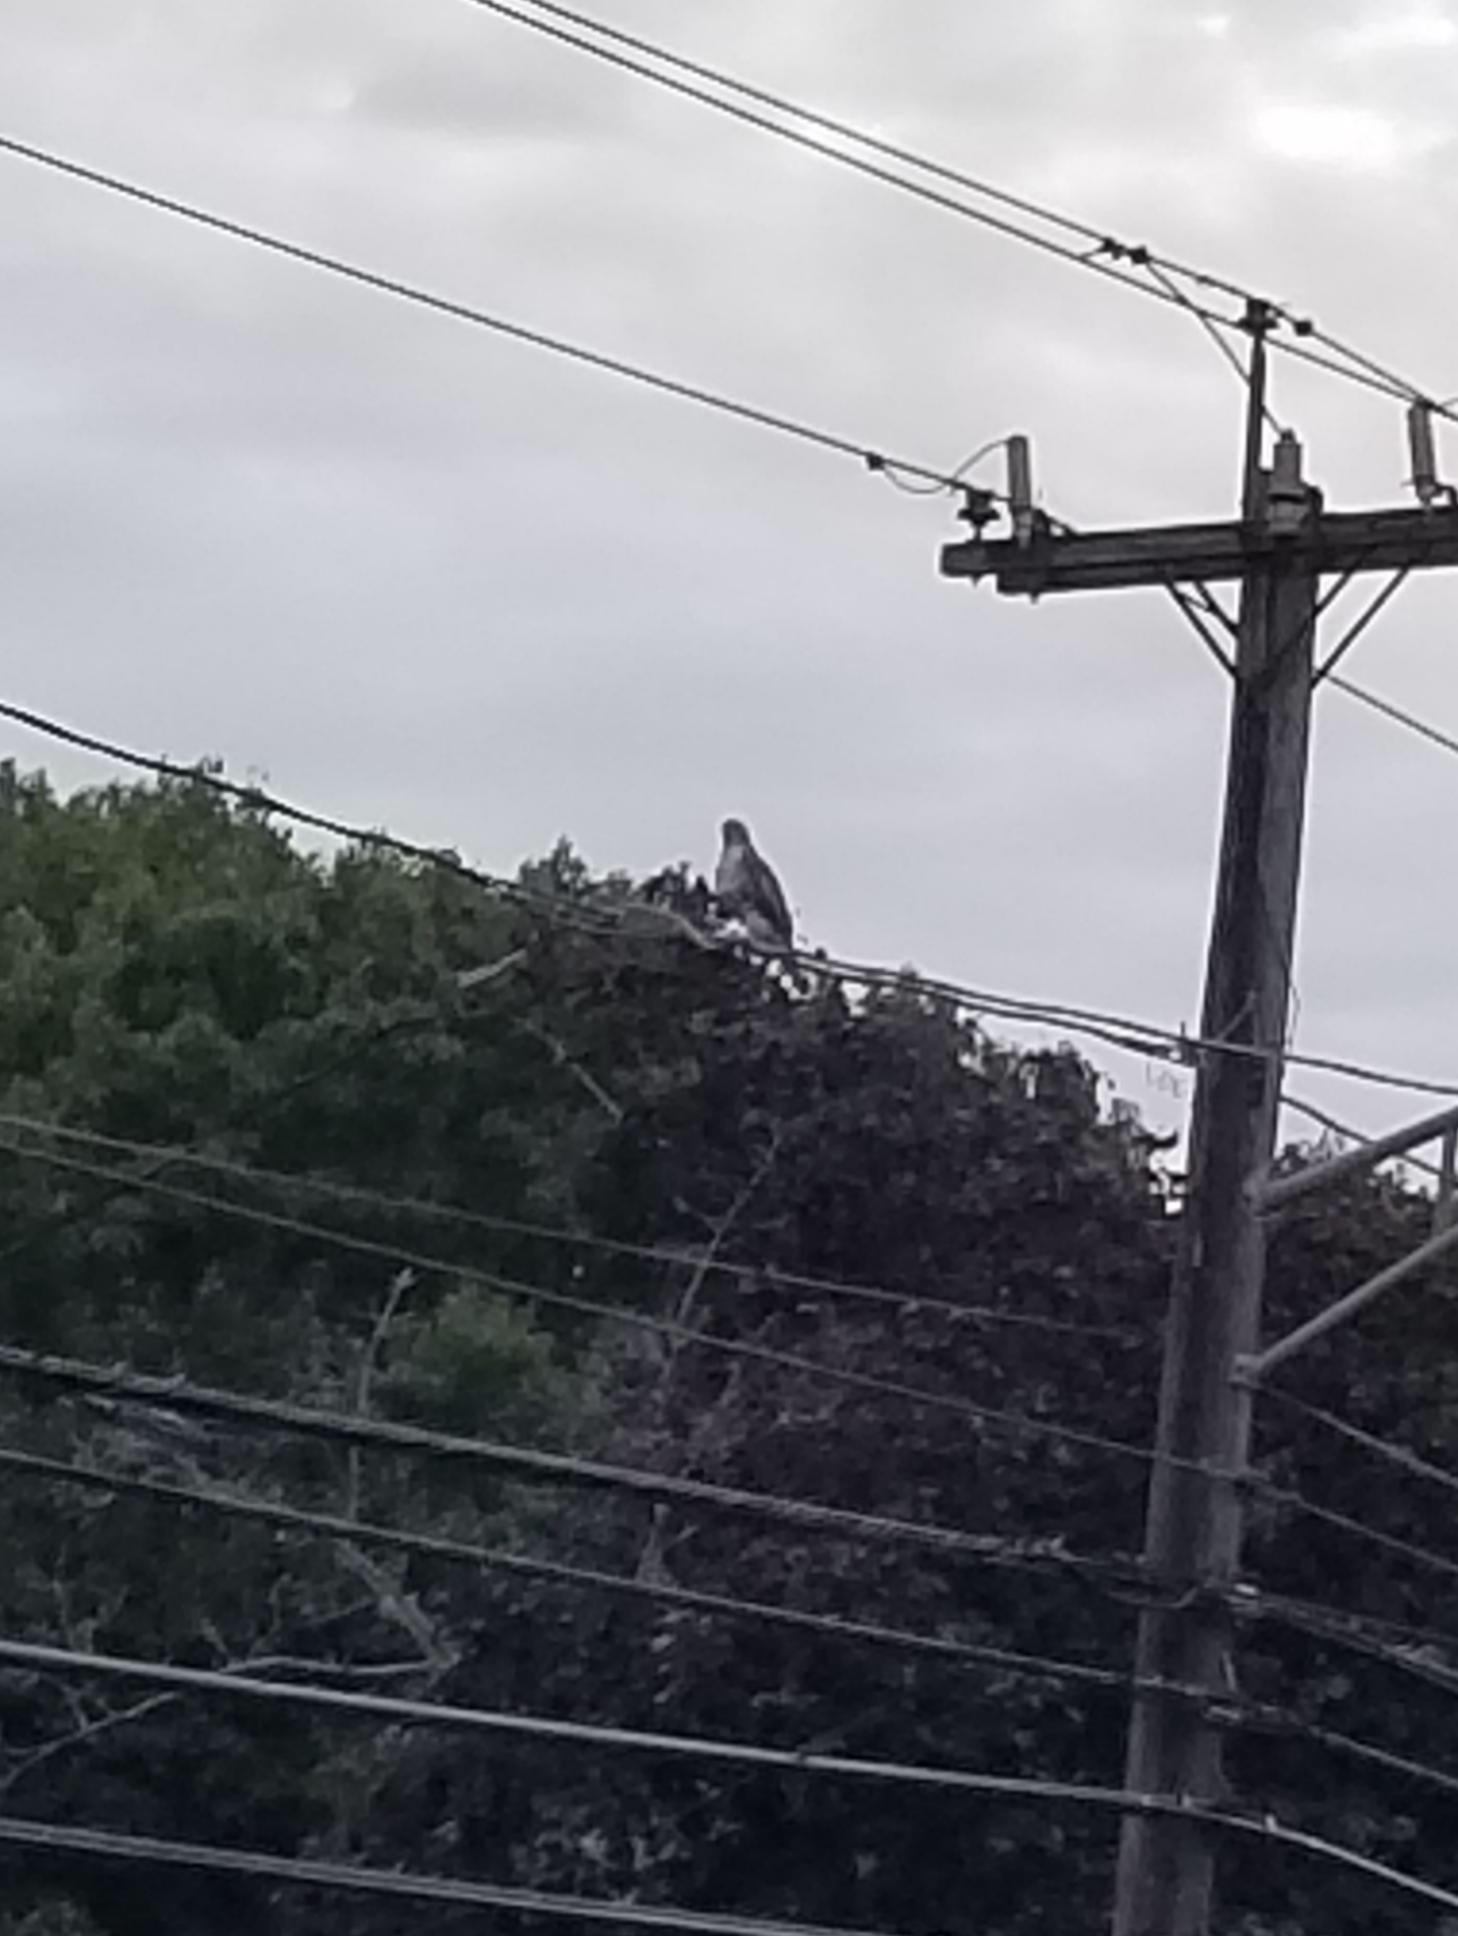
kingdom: Animalia
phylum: Chordata
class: Aves
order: Accipitriformes
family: Accipitridae
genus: Buteo
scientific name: Buteo jamaicensis
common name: Red-tailed hawk
